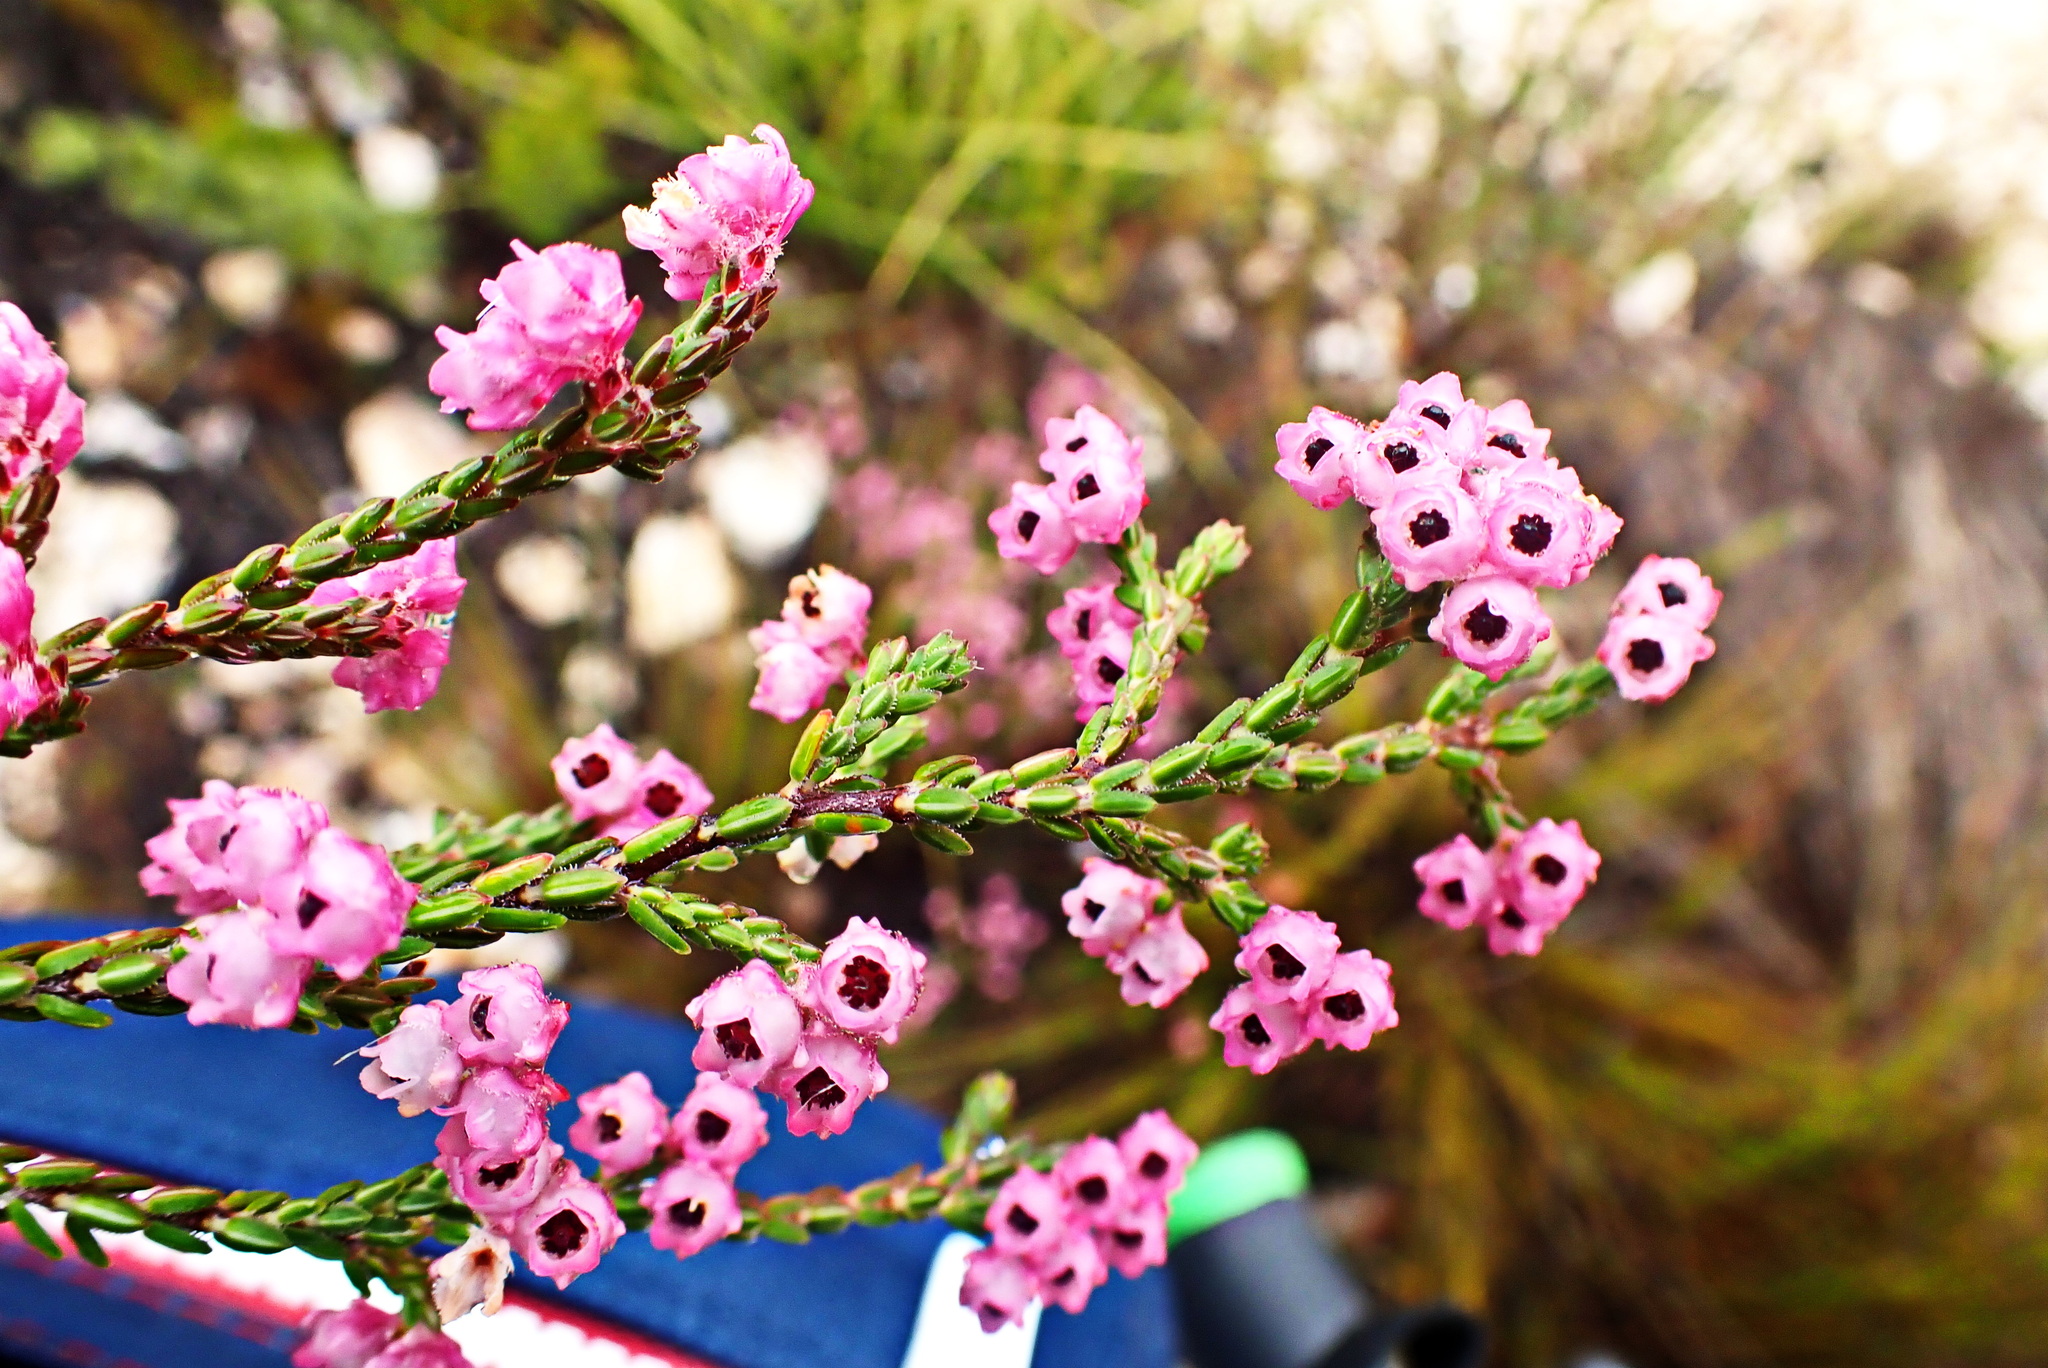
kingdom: Plantae
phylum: Tracheophyta
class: Magnoliopsida
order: Ericales
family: Ericaceae
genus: Erica
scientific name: Erica fimbriata
